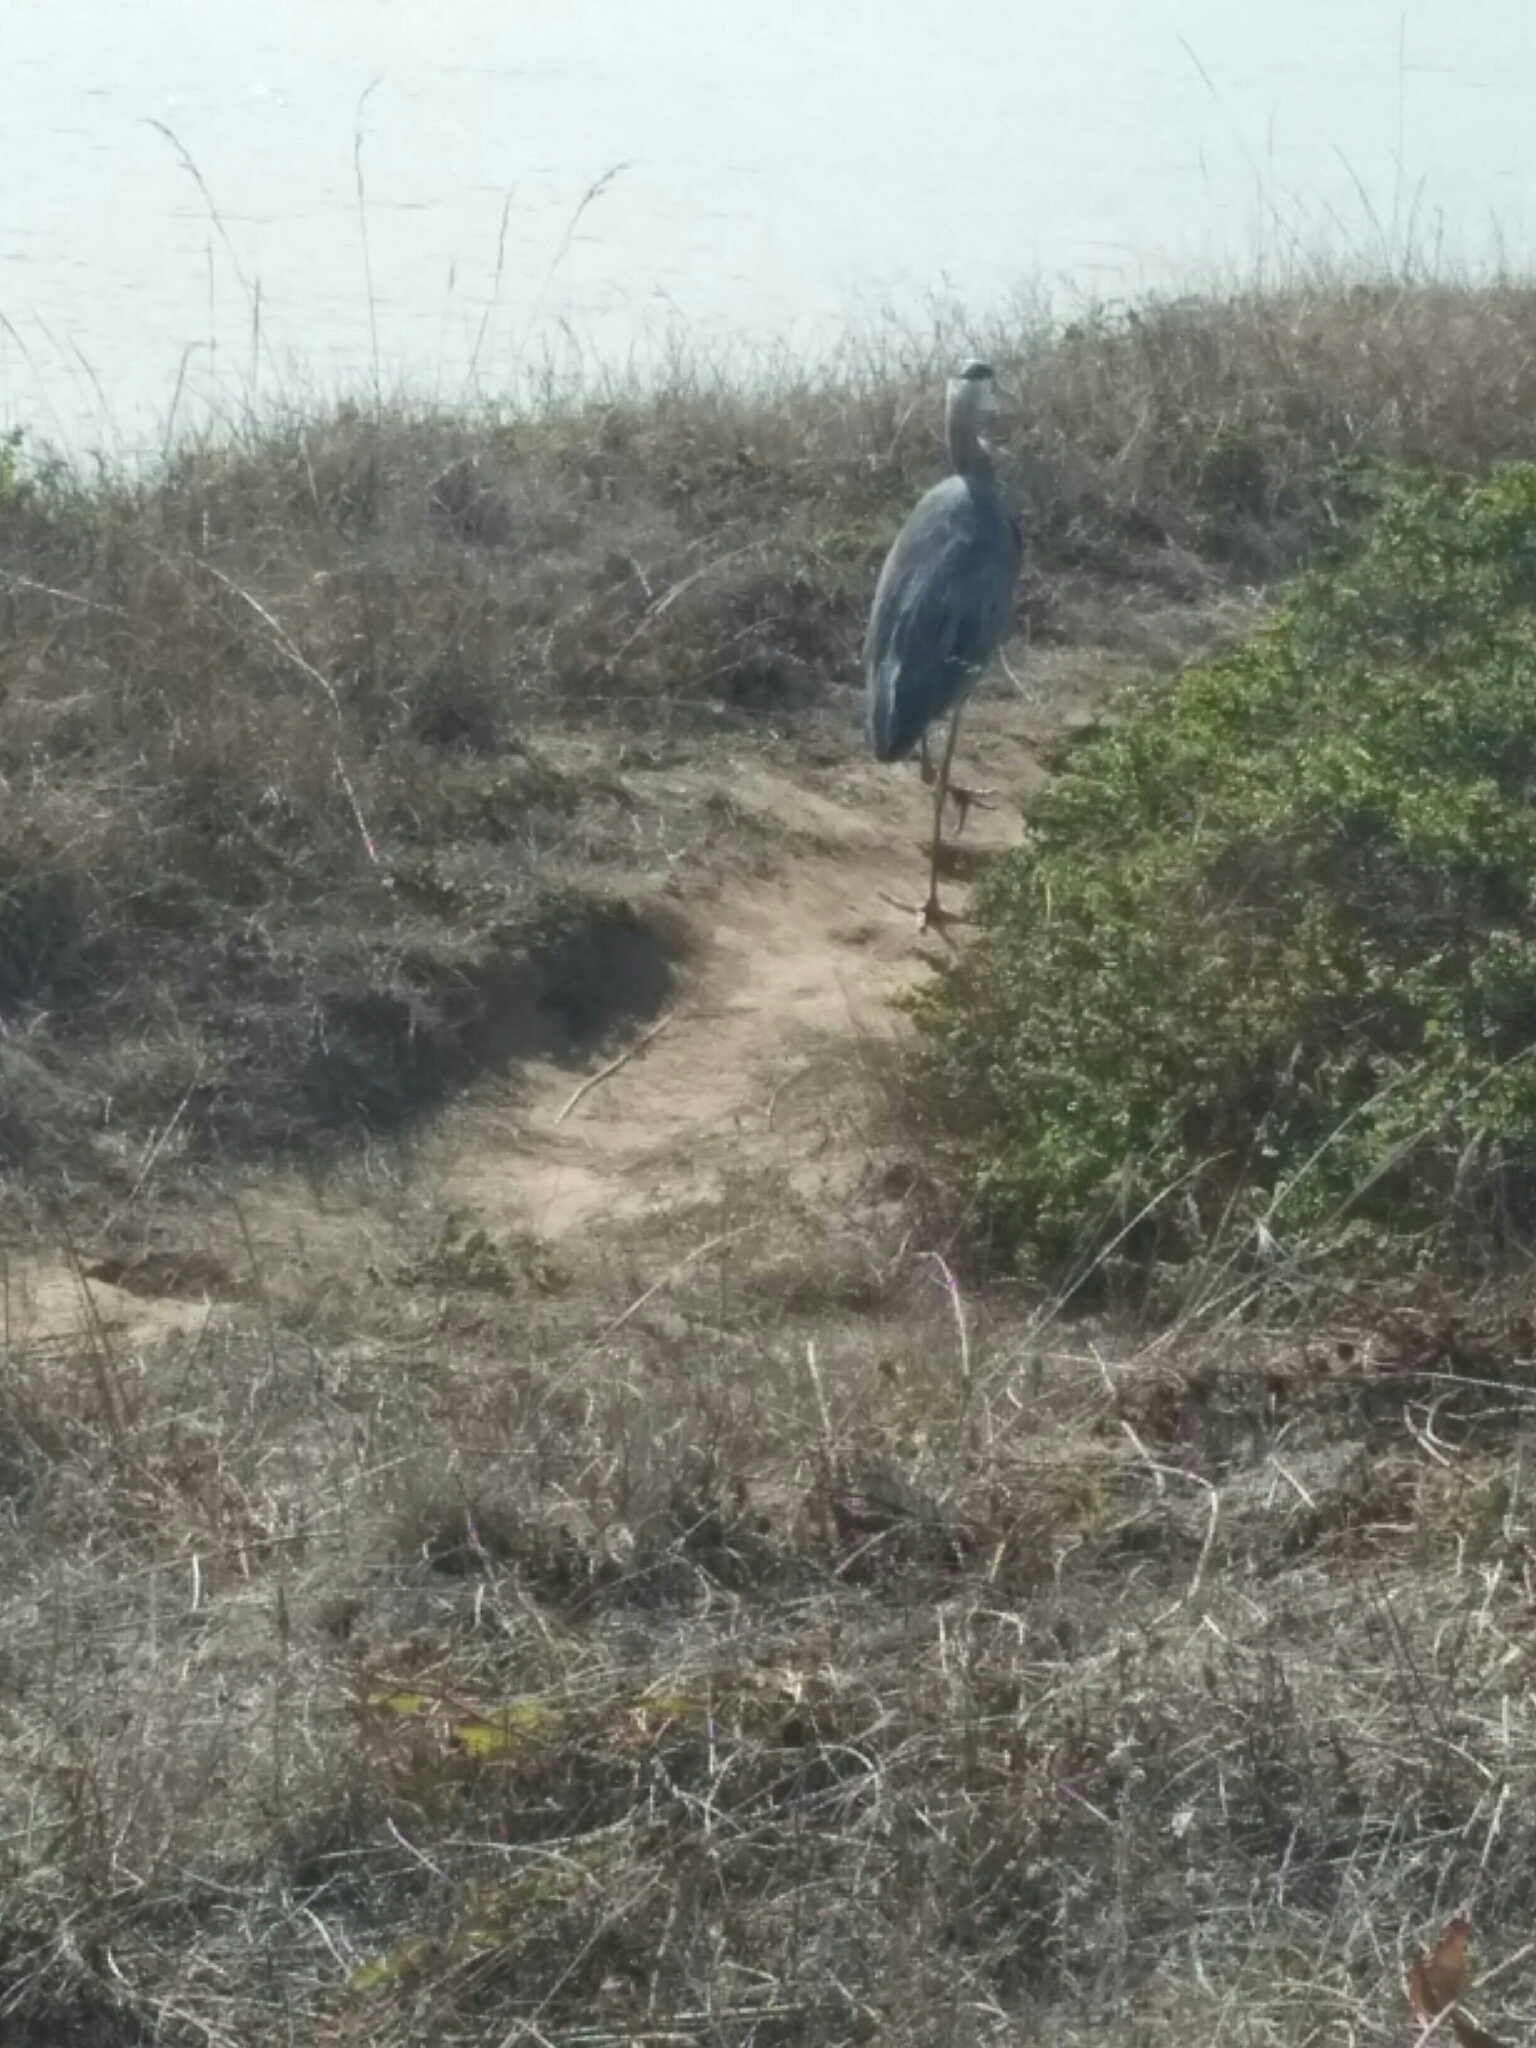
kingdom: Animalia
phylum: Chordata
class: Aves
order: Pelecaniformes
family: Ardeidae
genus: Ardea
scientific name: Ardea herodias
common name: Great blue heron
